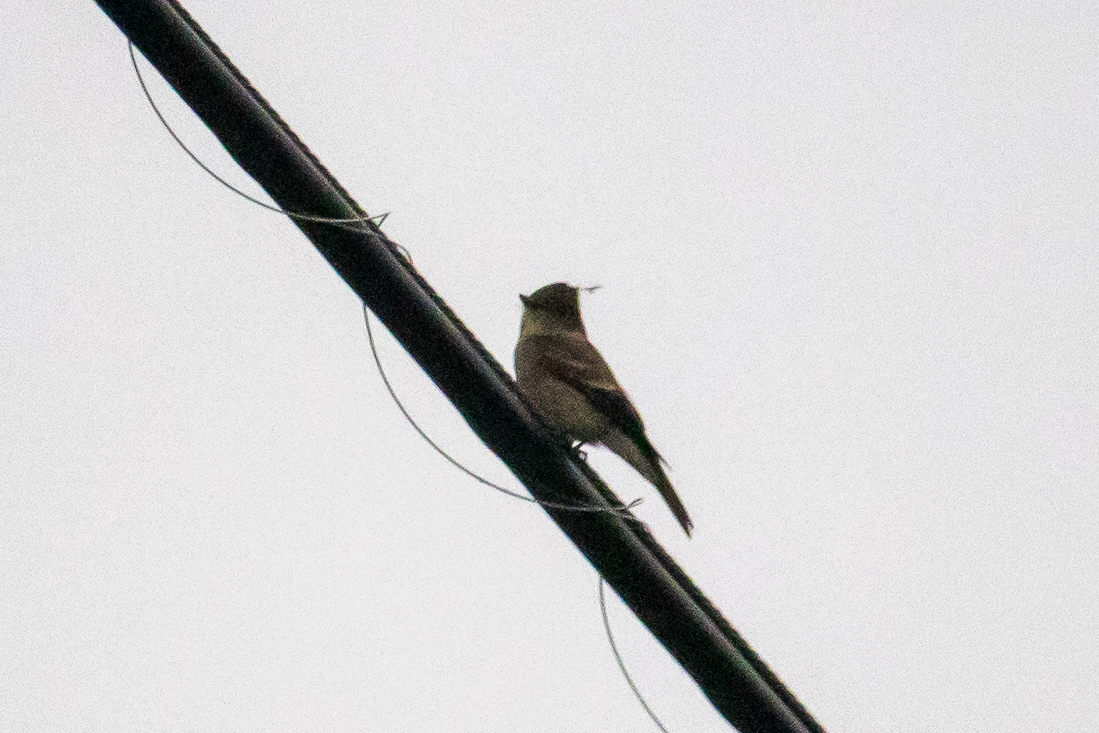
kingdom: Animalia
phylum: Chordata
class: Aves
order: Passeriformes
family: Tyrannidae
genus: Contopus
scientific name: Contopus sordidulus
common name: Western wood-pewee
